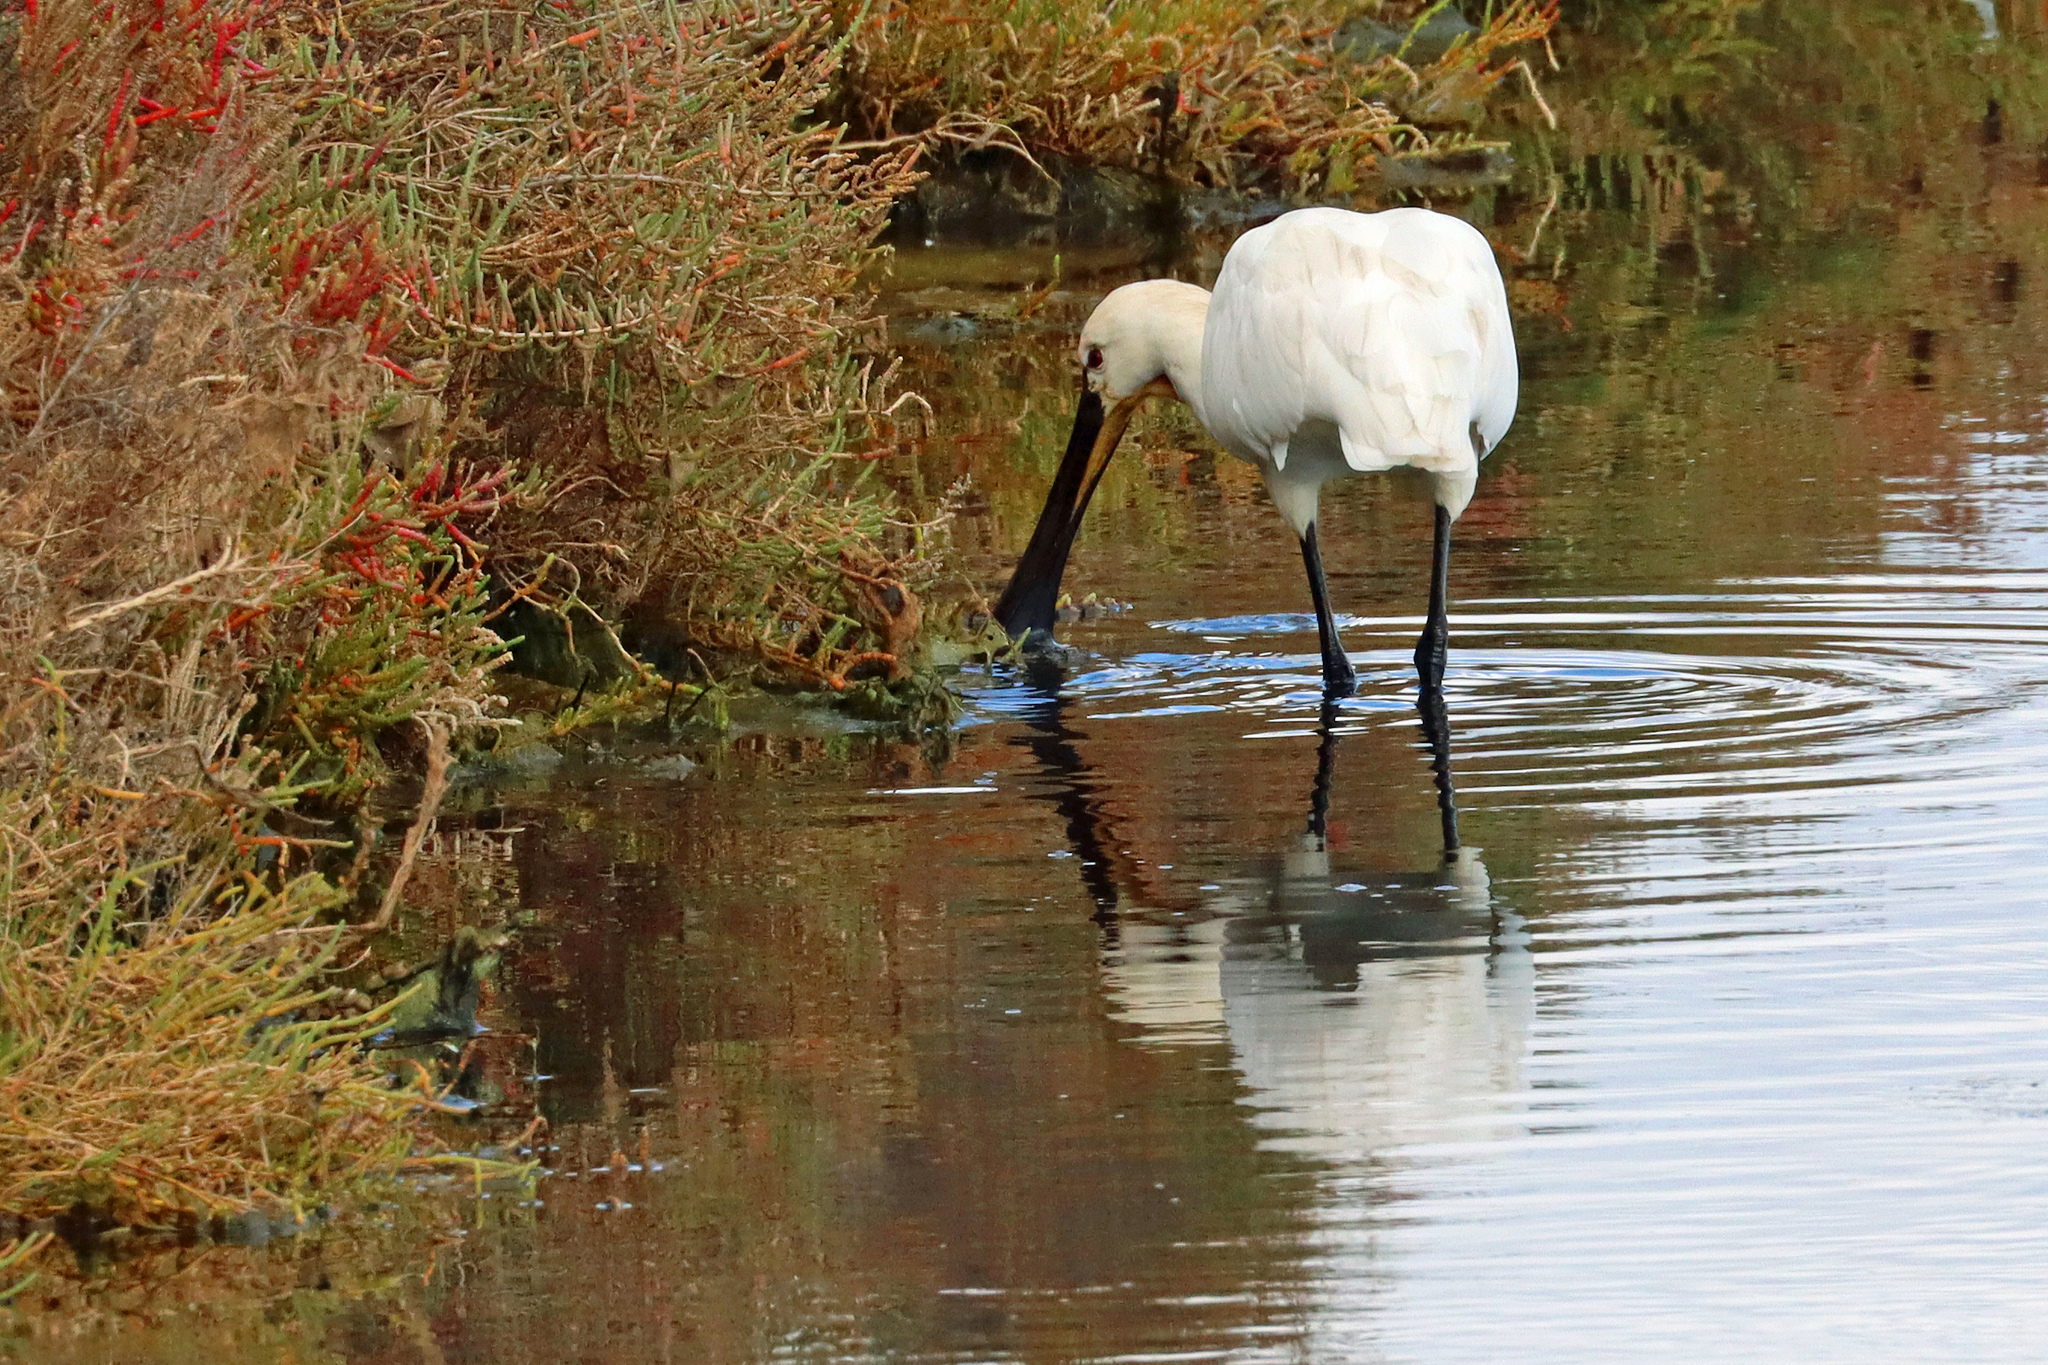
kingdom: Animalia
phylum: Chordata
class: Aves
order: Pelecaniformes
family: Threskiornithidae
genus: Platalea
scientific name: Platalea leucorodia
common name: Eurasian spoonbill
